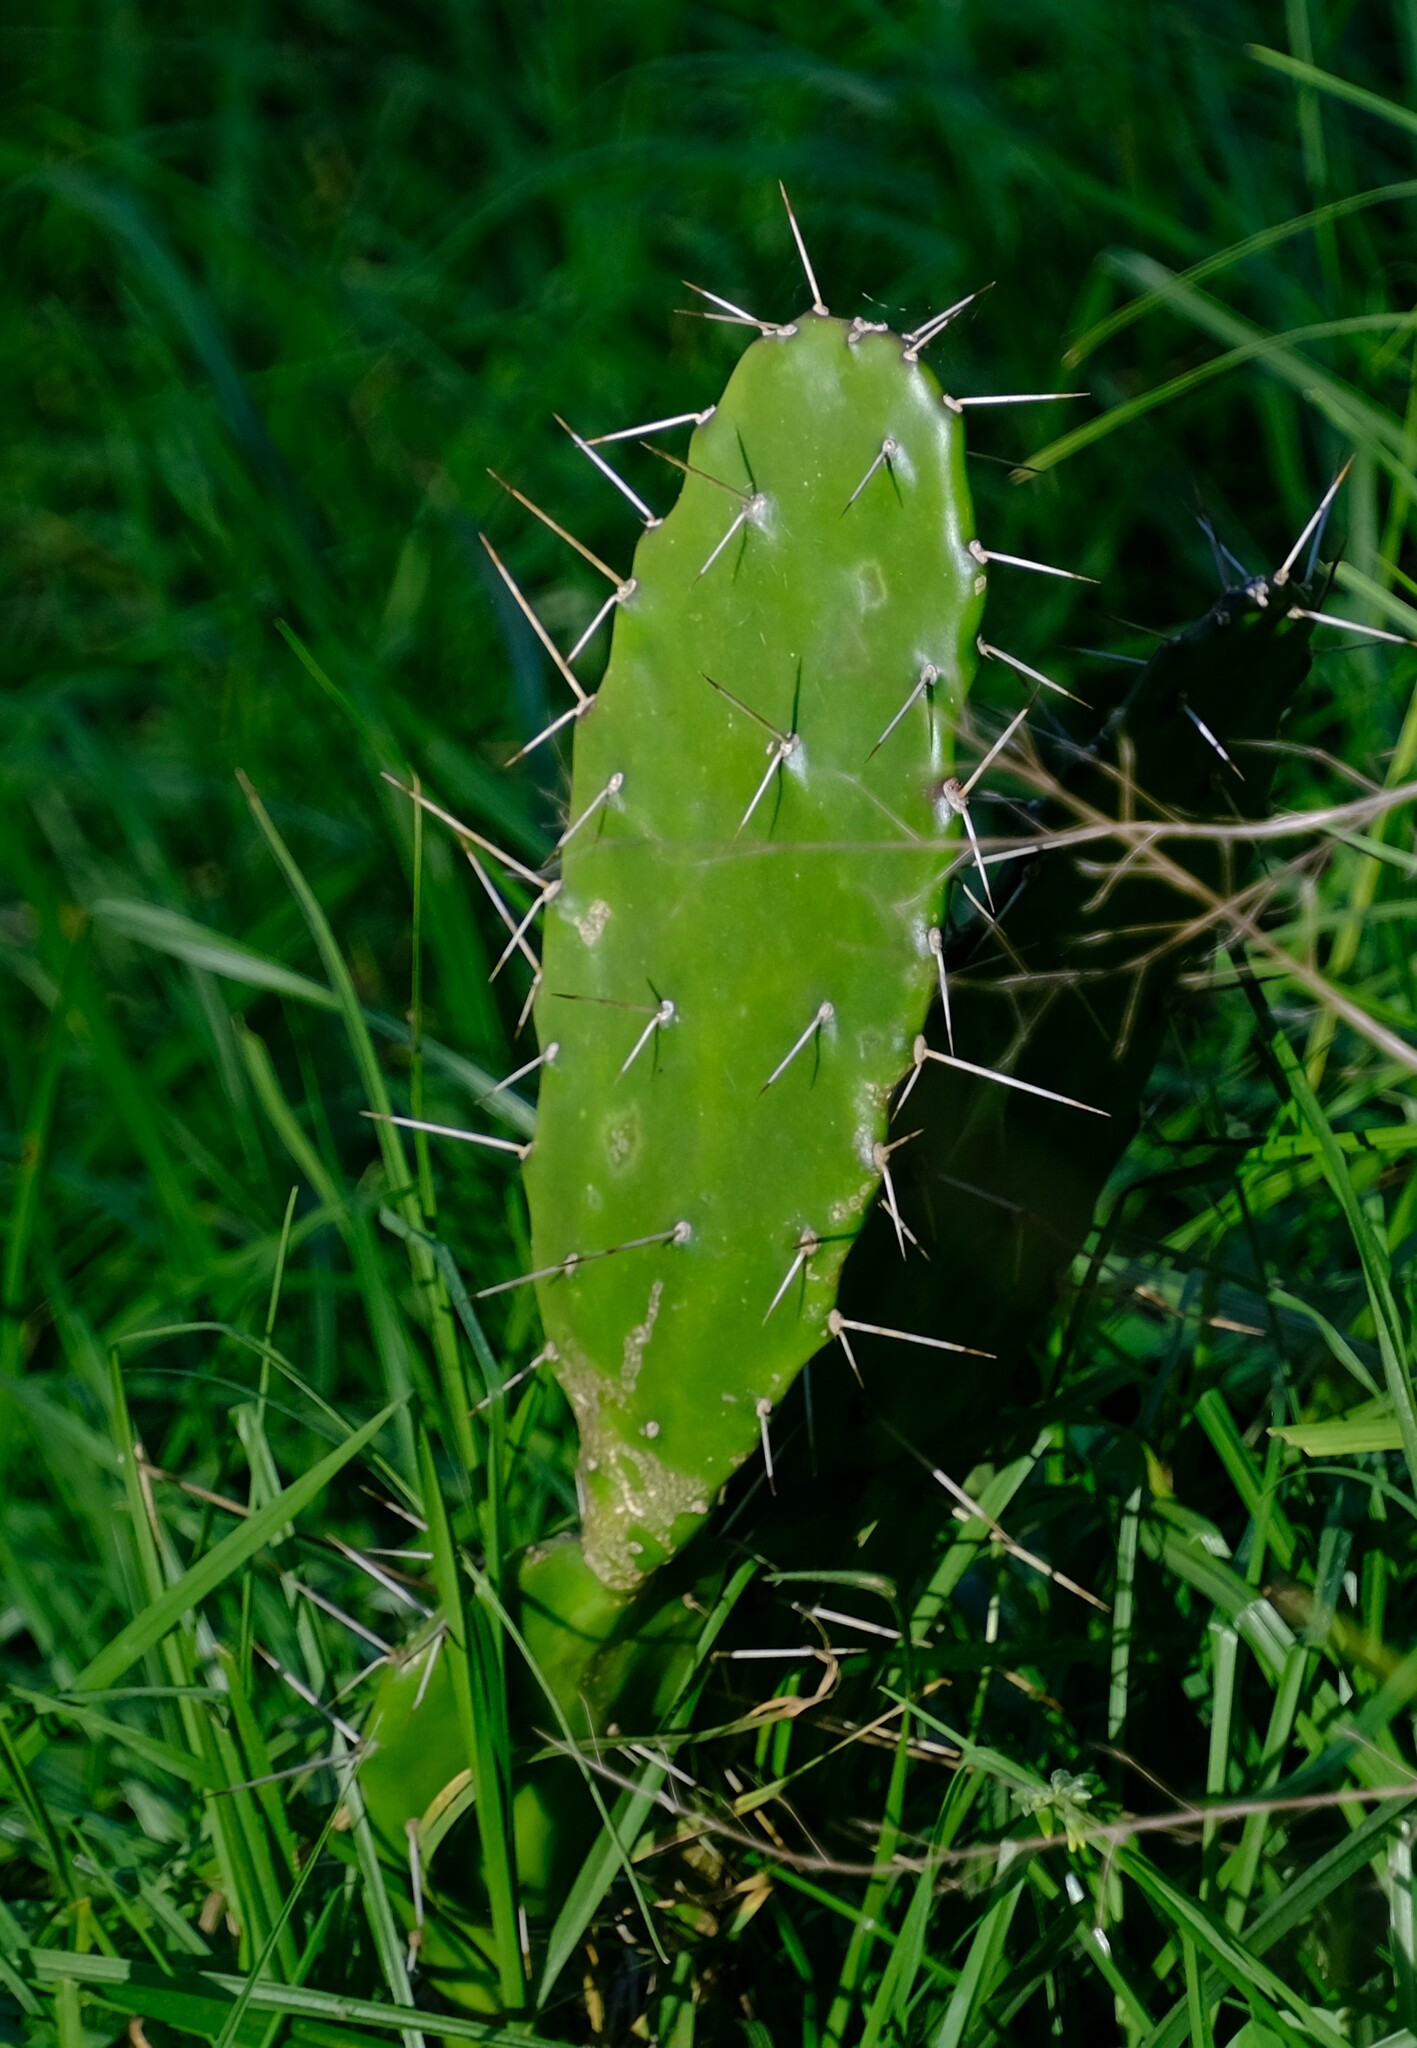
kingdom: Plantae
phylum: Tracheophyta
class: Magnoliopsida
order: Caryophyllales
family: Cactaceae
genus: Opuntia
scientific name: Opuntia monacantha
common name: Common pricklypear
